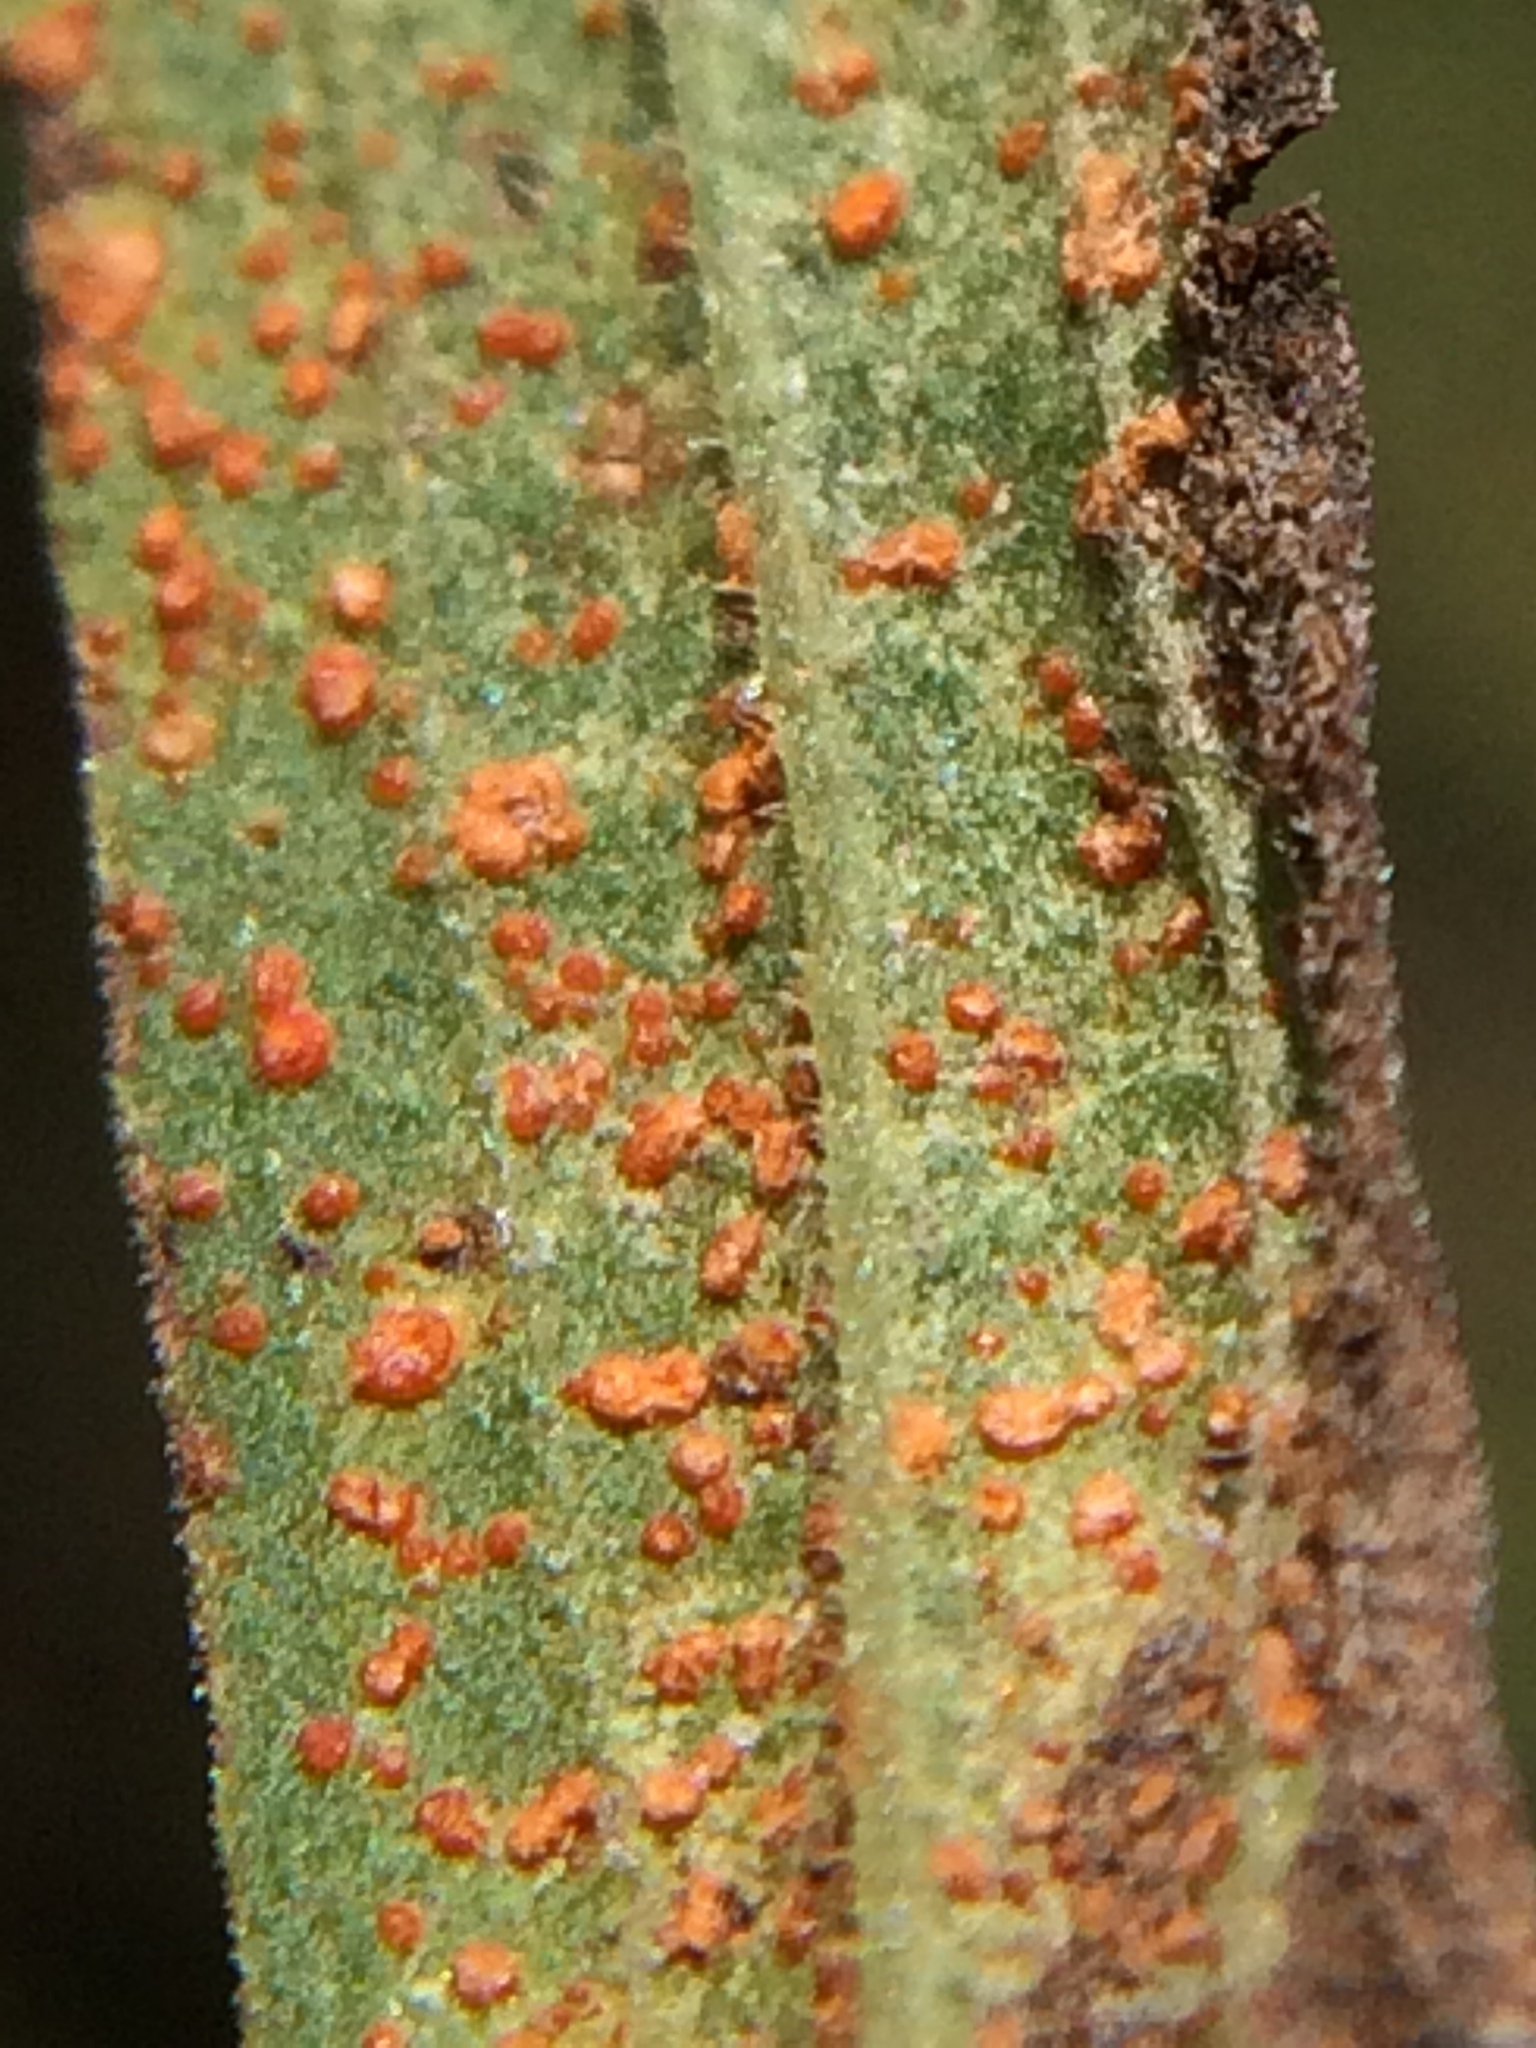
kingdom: Plantae
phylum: Tracheophyta
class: Magnoliopsida
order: Asterales
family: Asteraceae
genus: Euthamia
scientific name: Euthamia graminifolia
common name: Common goldentop
